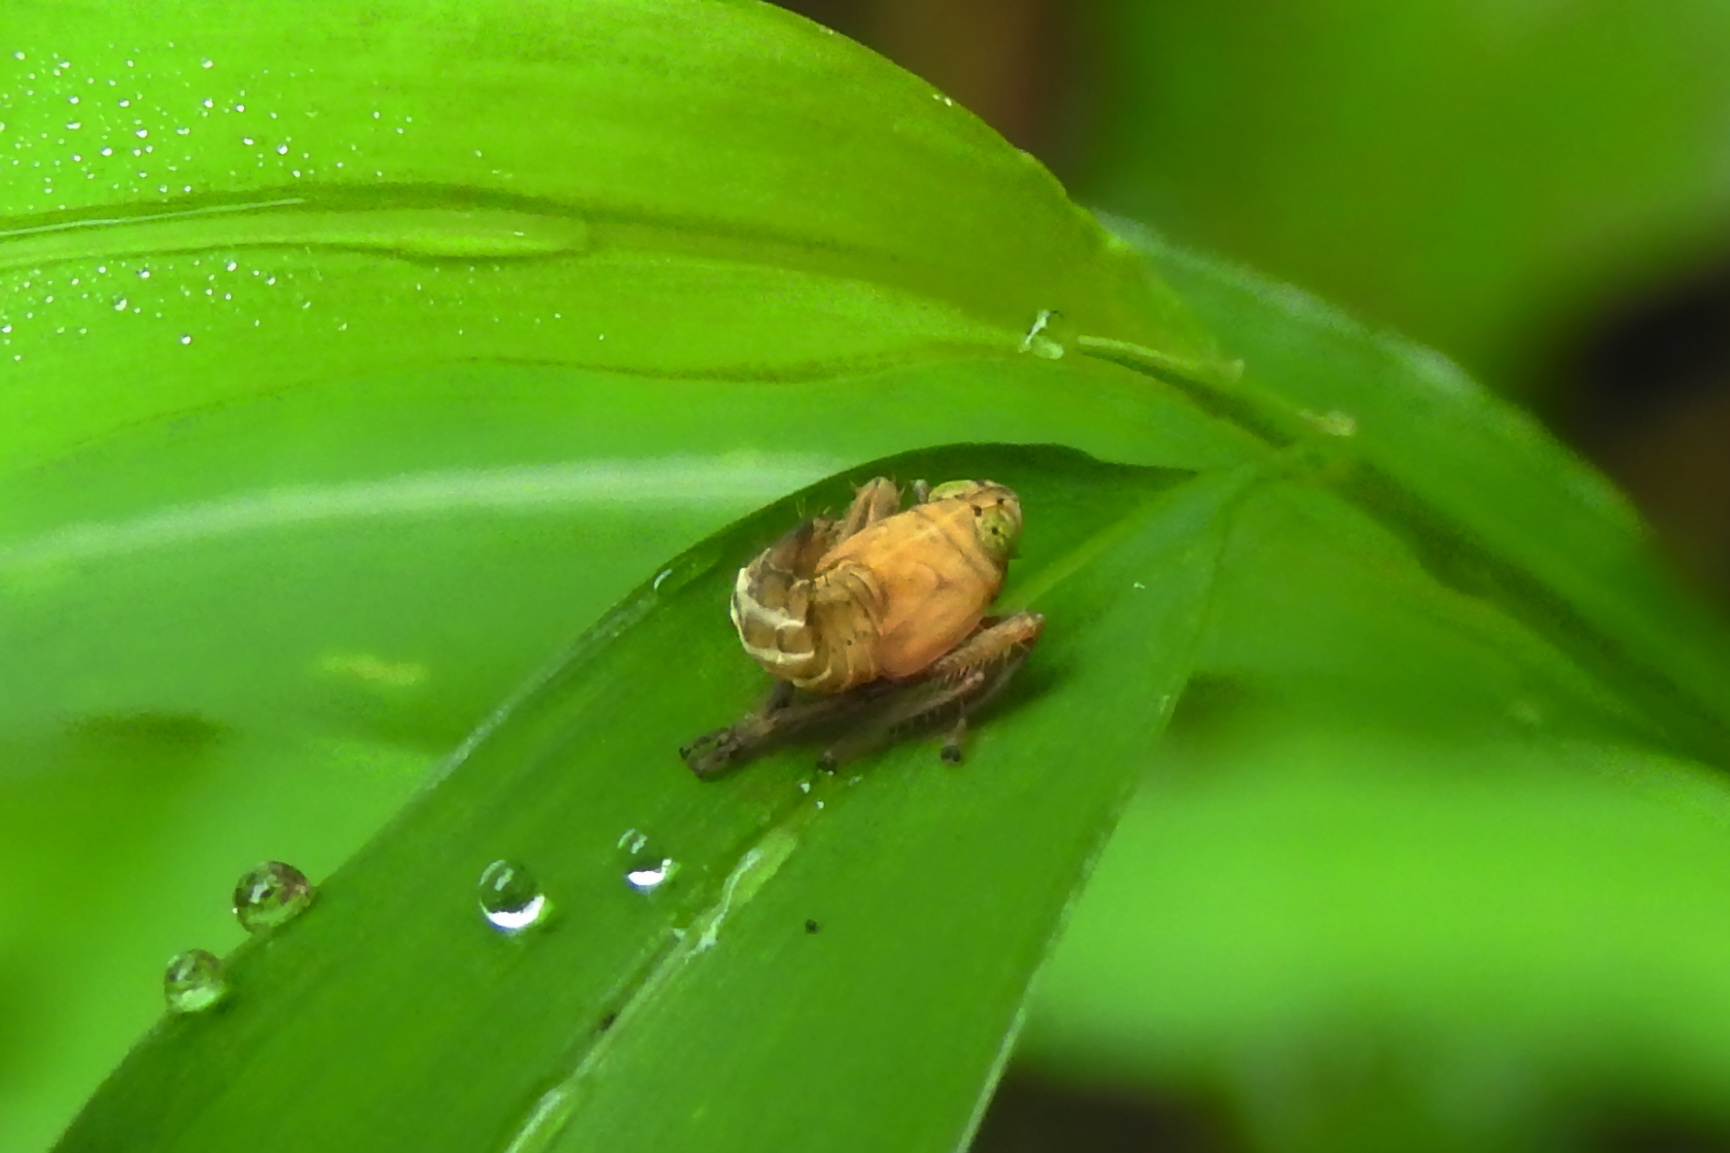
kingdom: Animalia
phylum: Arthropoda
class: Insecta
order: Hemiptera
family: Cicadellidae
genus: Jikradia
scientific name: Jikradia olitoria
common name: Coppery leafhopper
